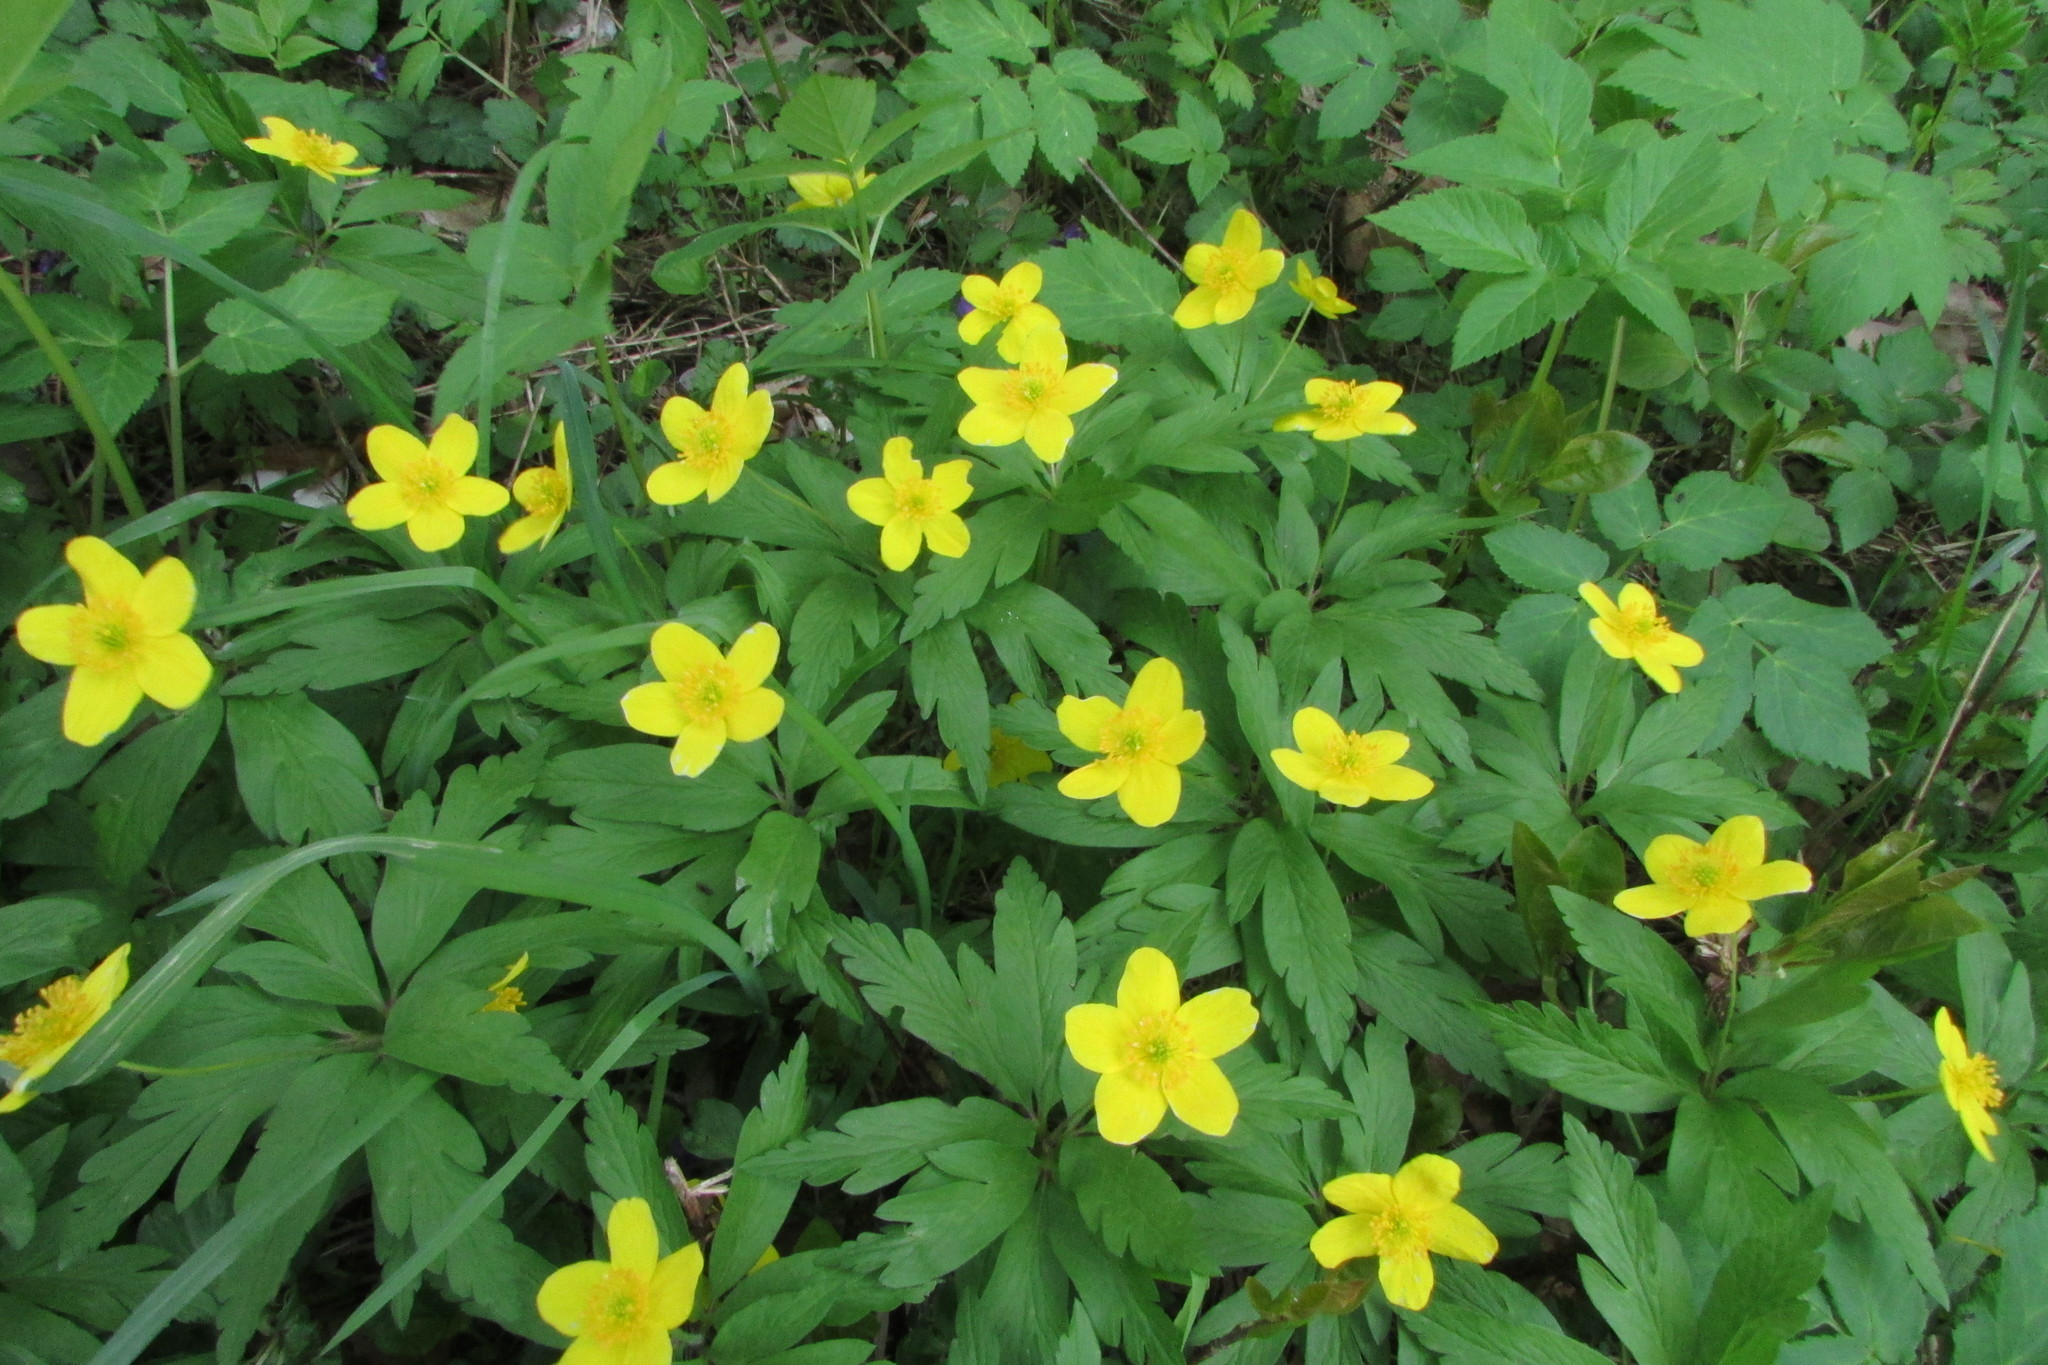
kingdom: Plantae
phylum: Tracheophyta
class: Magnoliopsida
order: Ranunculales
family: Ranunculaceae
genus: Anemone
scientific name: Anemone ranunculoides
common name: Yellow anemone
